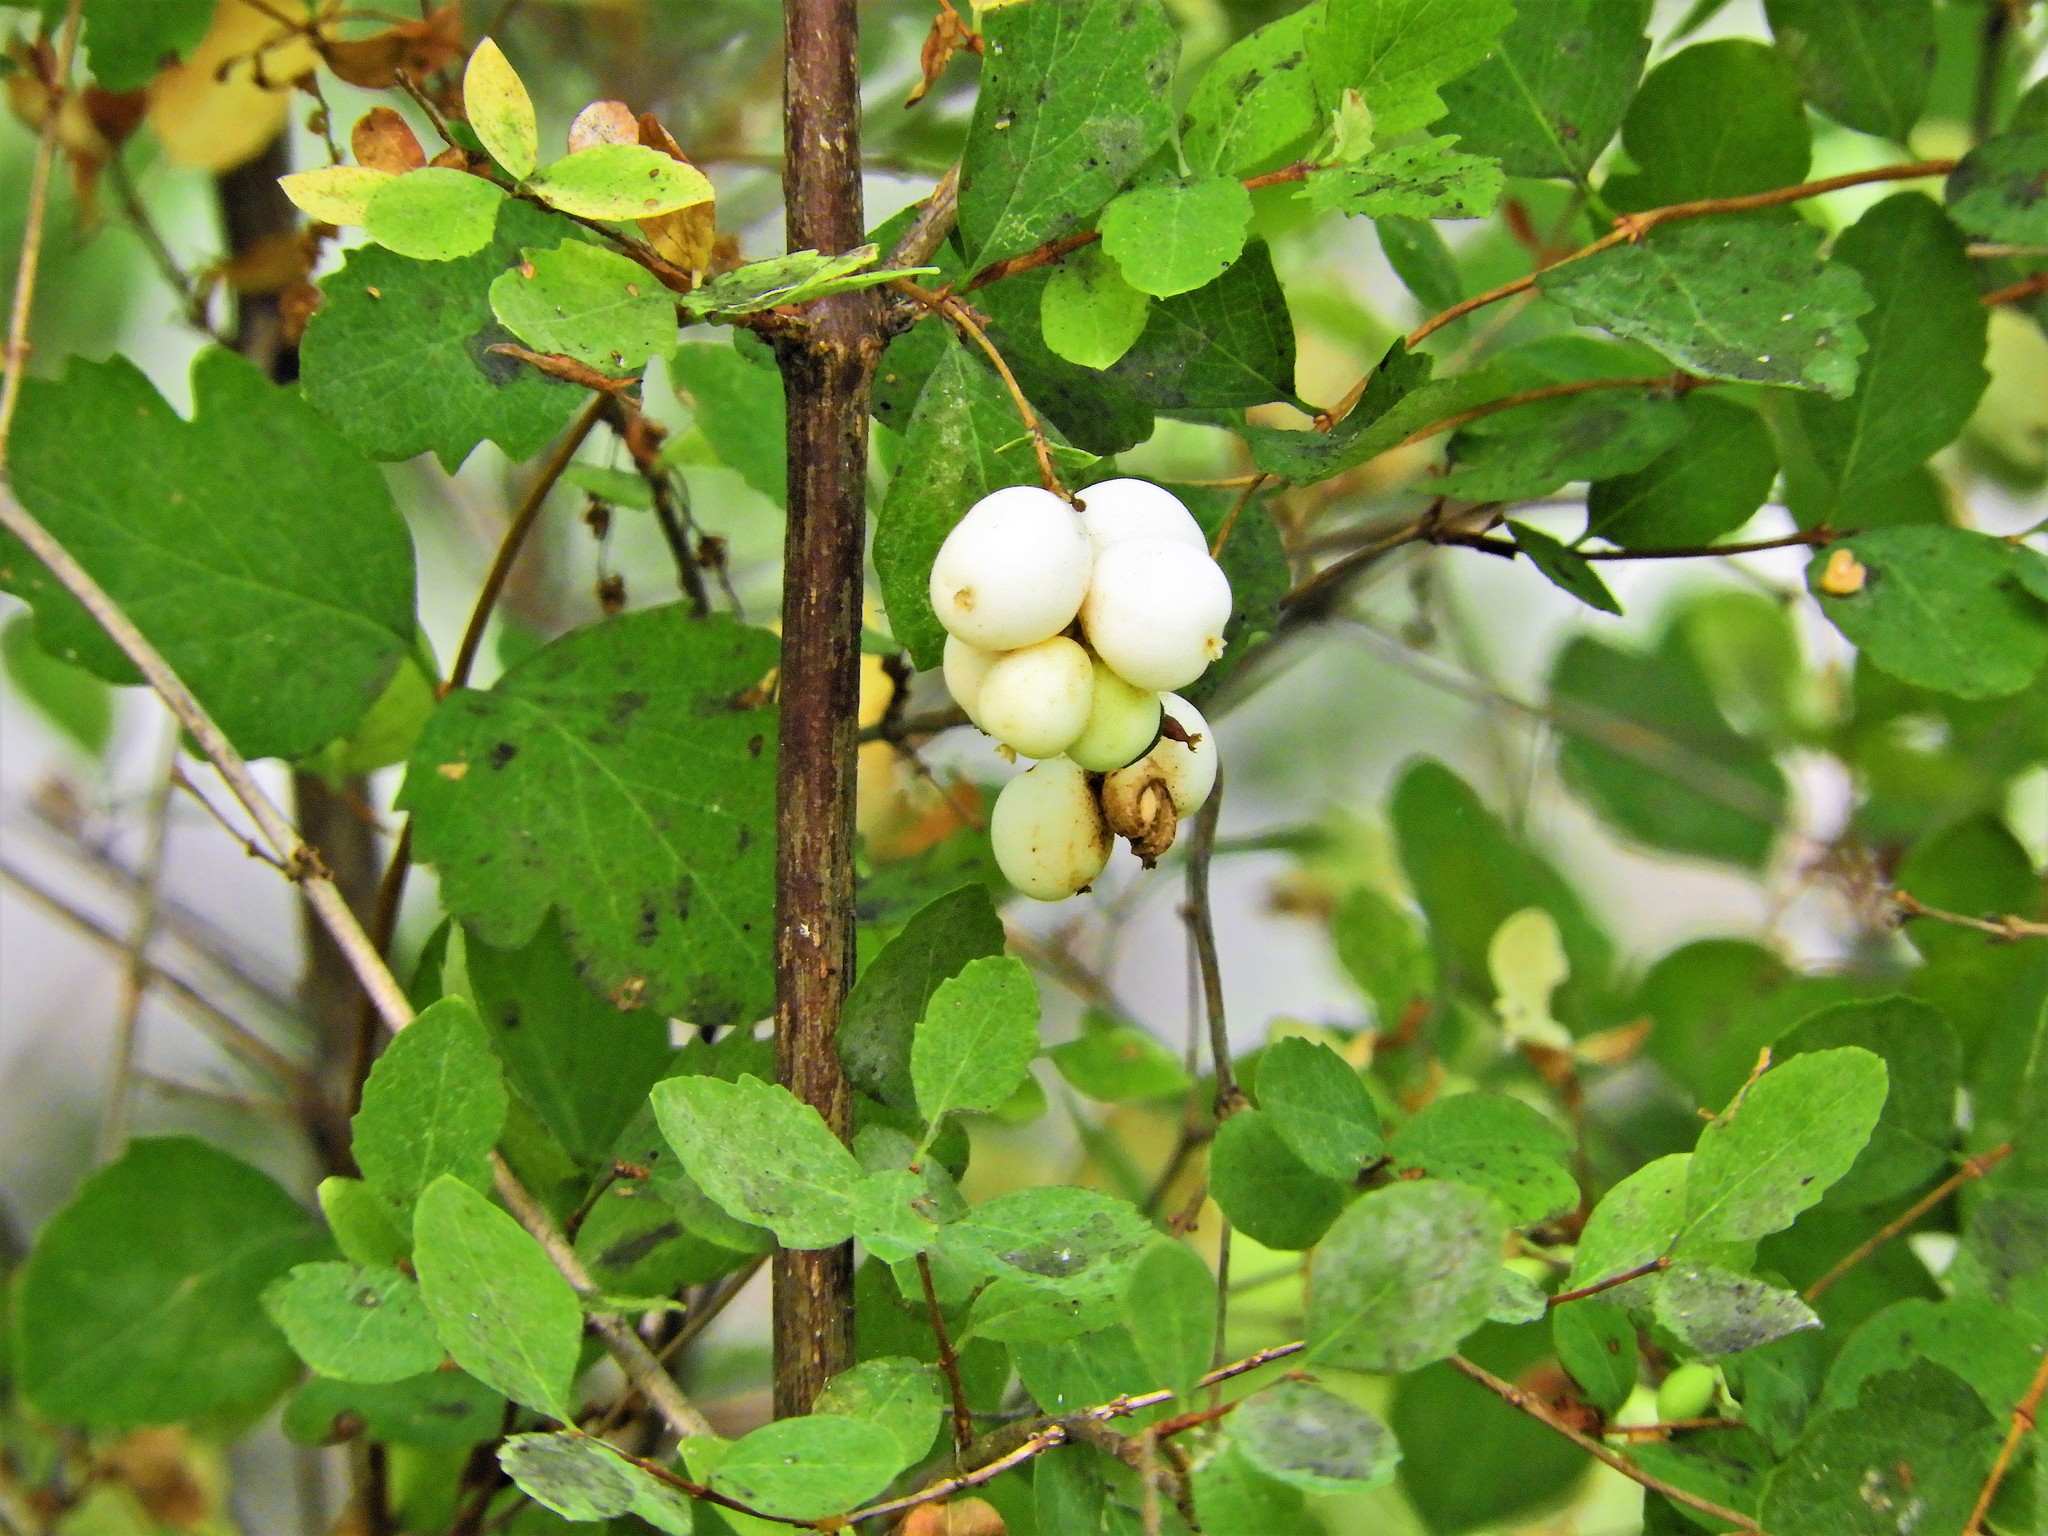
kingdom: Plantae
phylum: Tracheophyta
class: Magnoliopsida
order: Dipsacales
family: Caprifoliaceae
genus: Symphoricarpos
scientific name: Symphoricarpos albus
